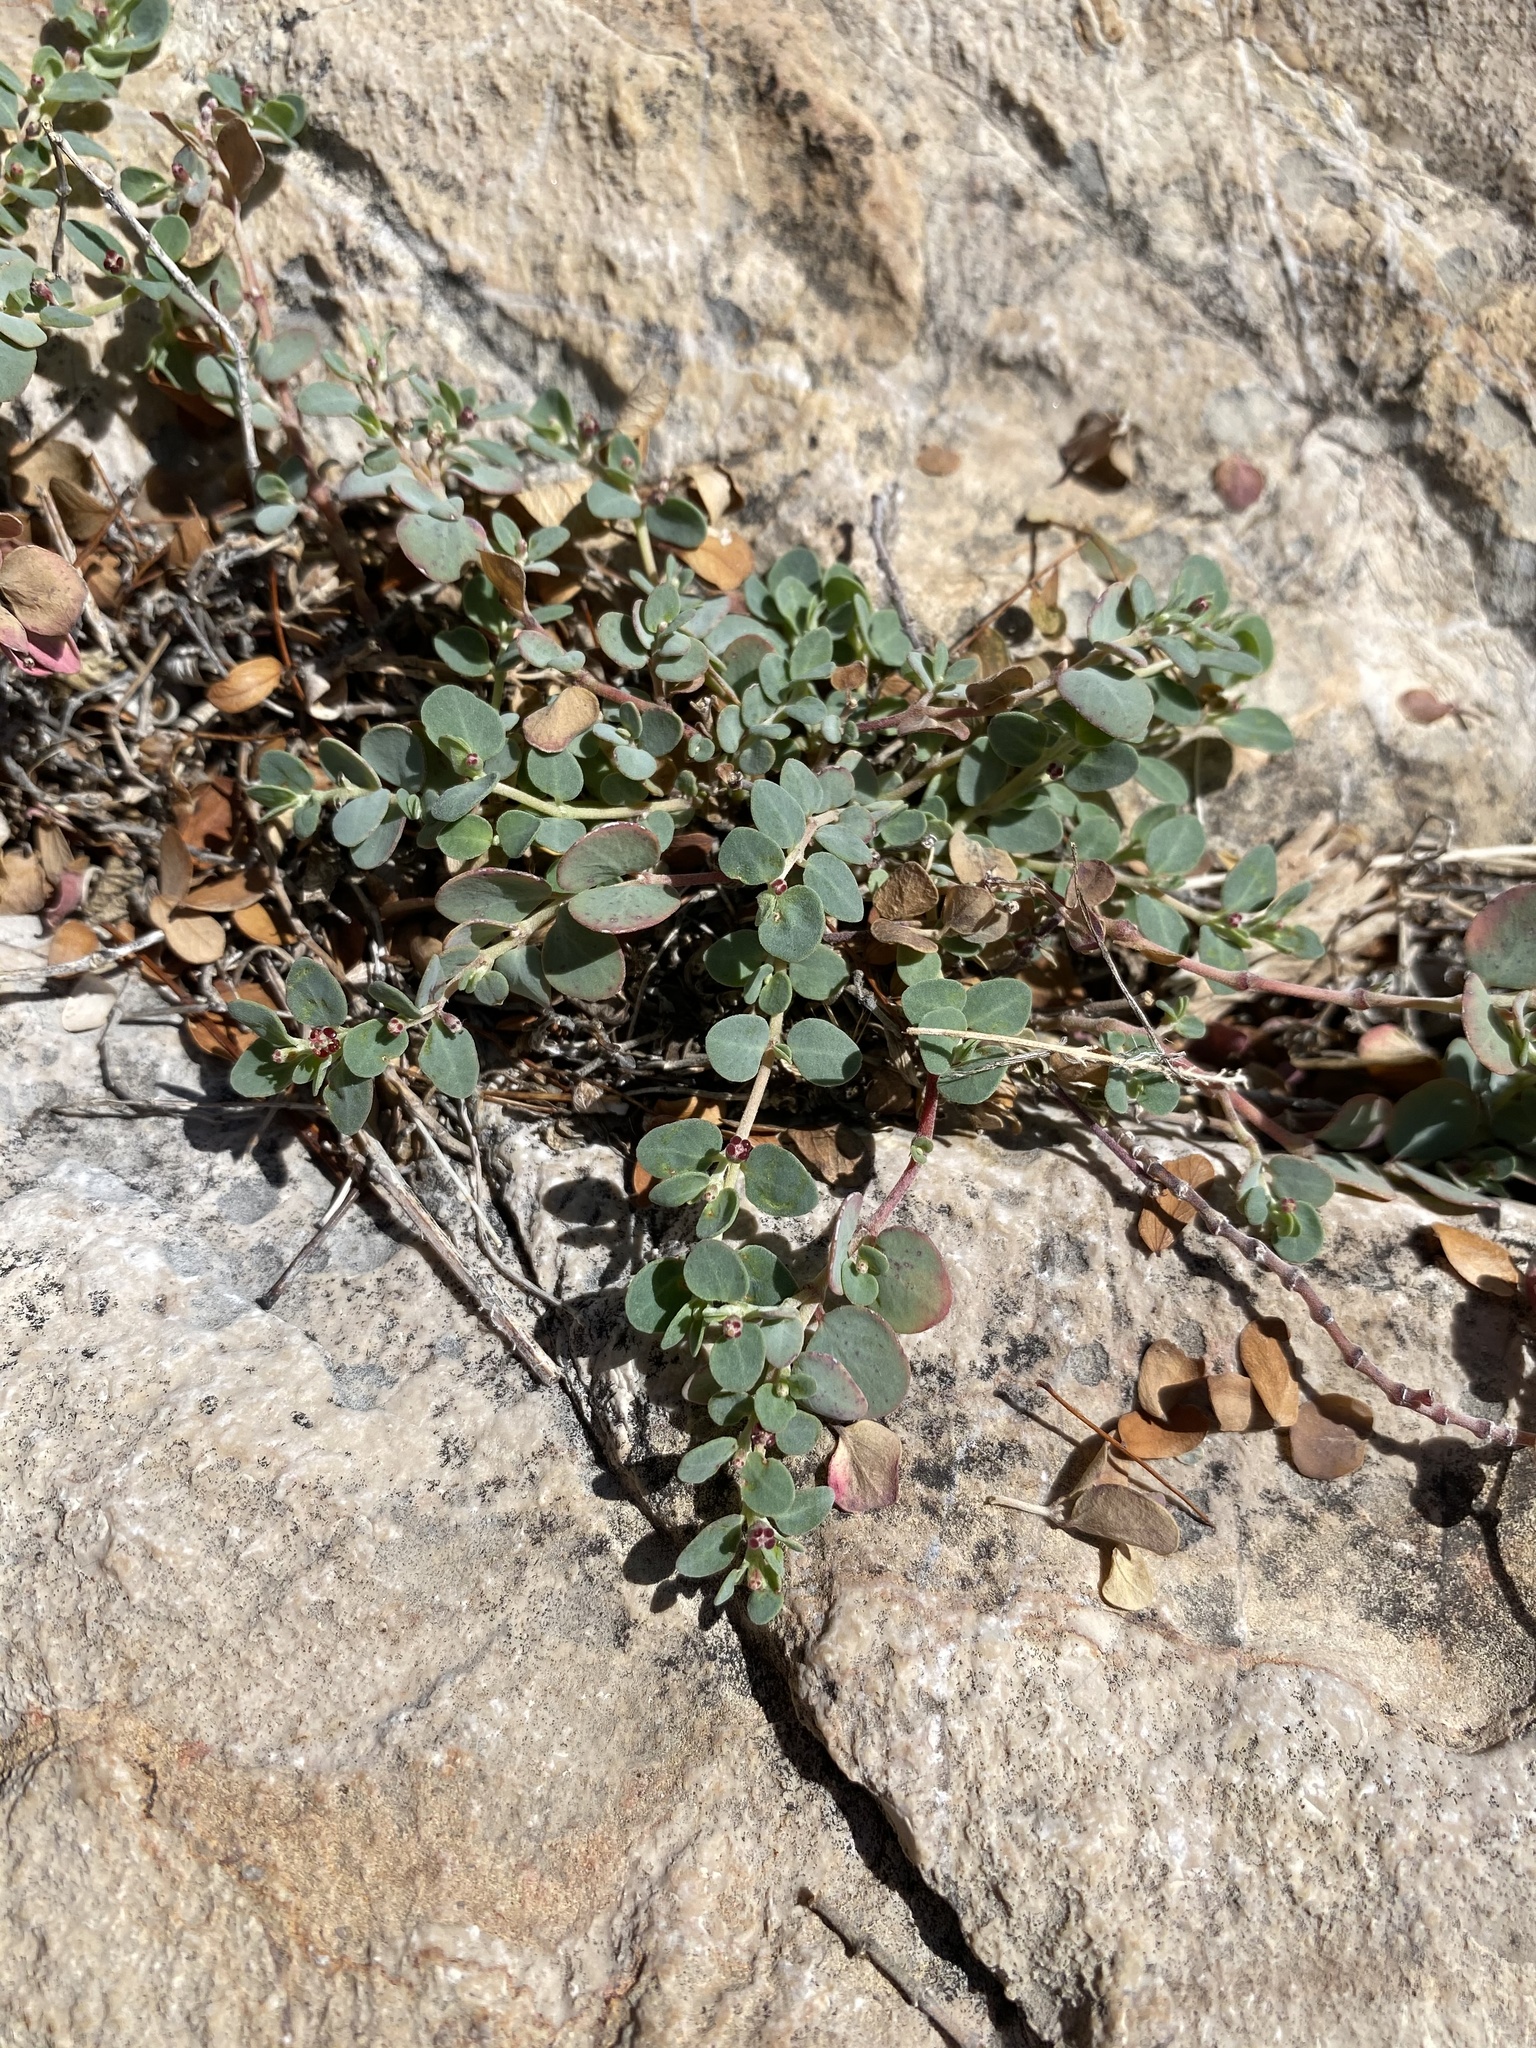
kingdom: Plantae
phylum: Tracheophyta
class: Magnoliopsida
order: Malpighiales
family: Euphorbiaceae
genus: Euphorbia
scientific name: Euphorbia cinerascens
